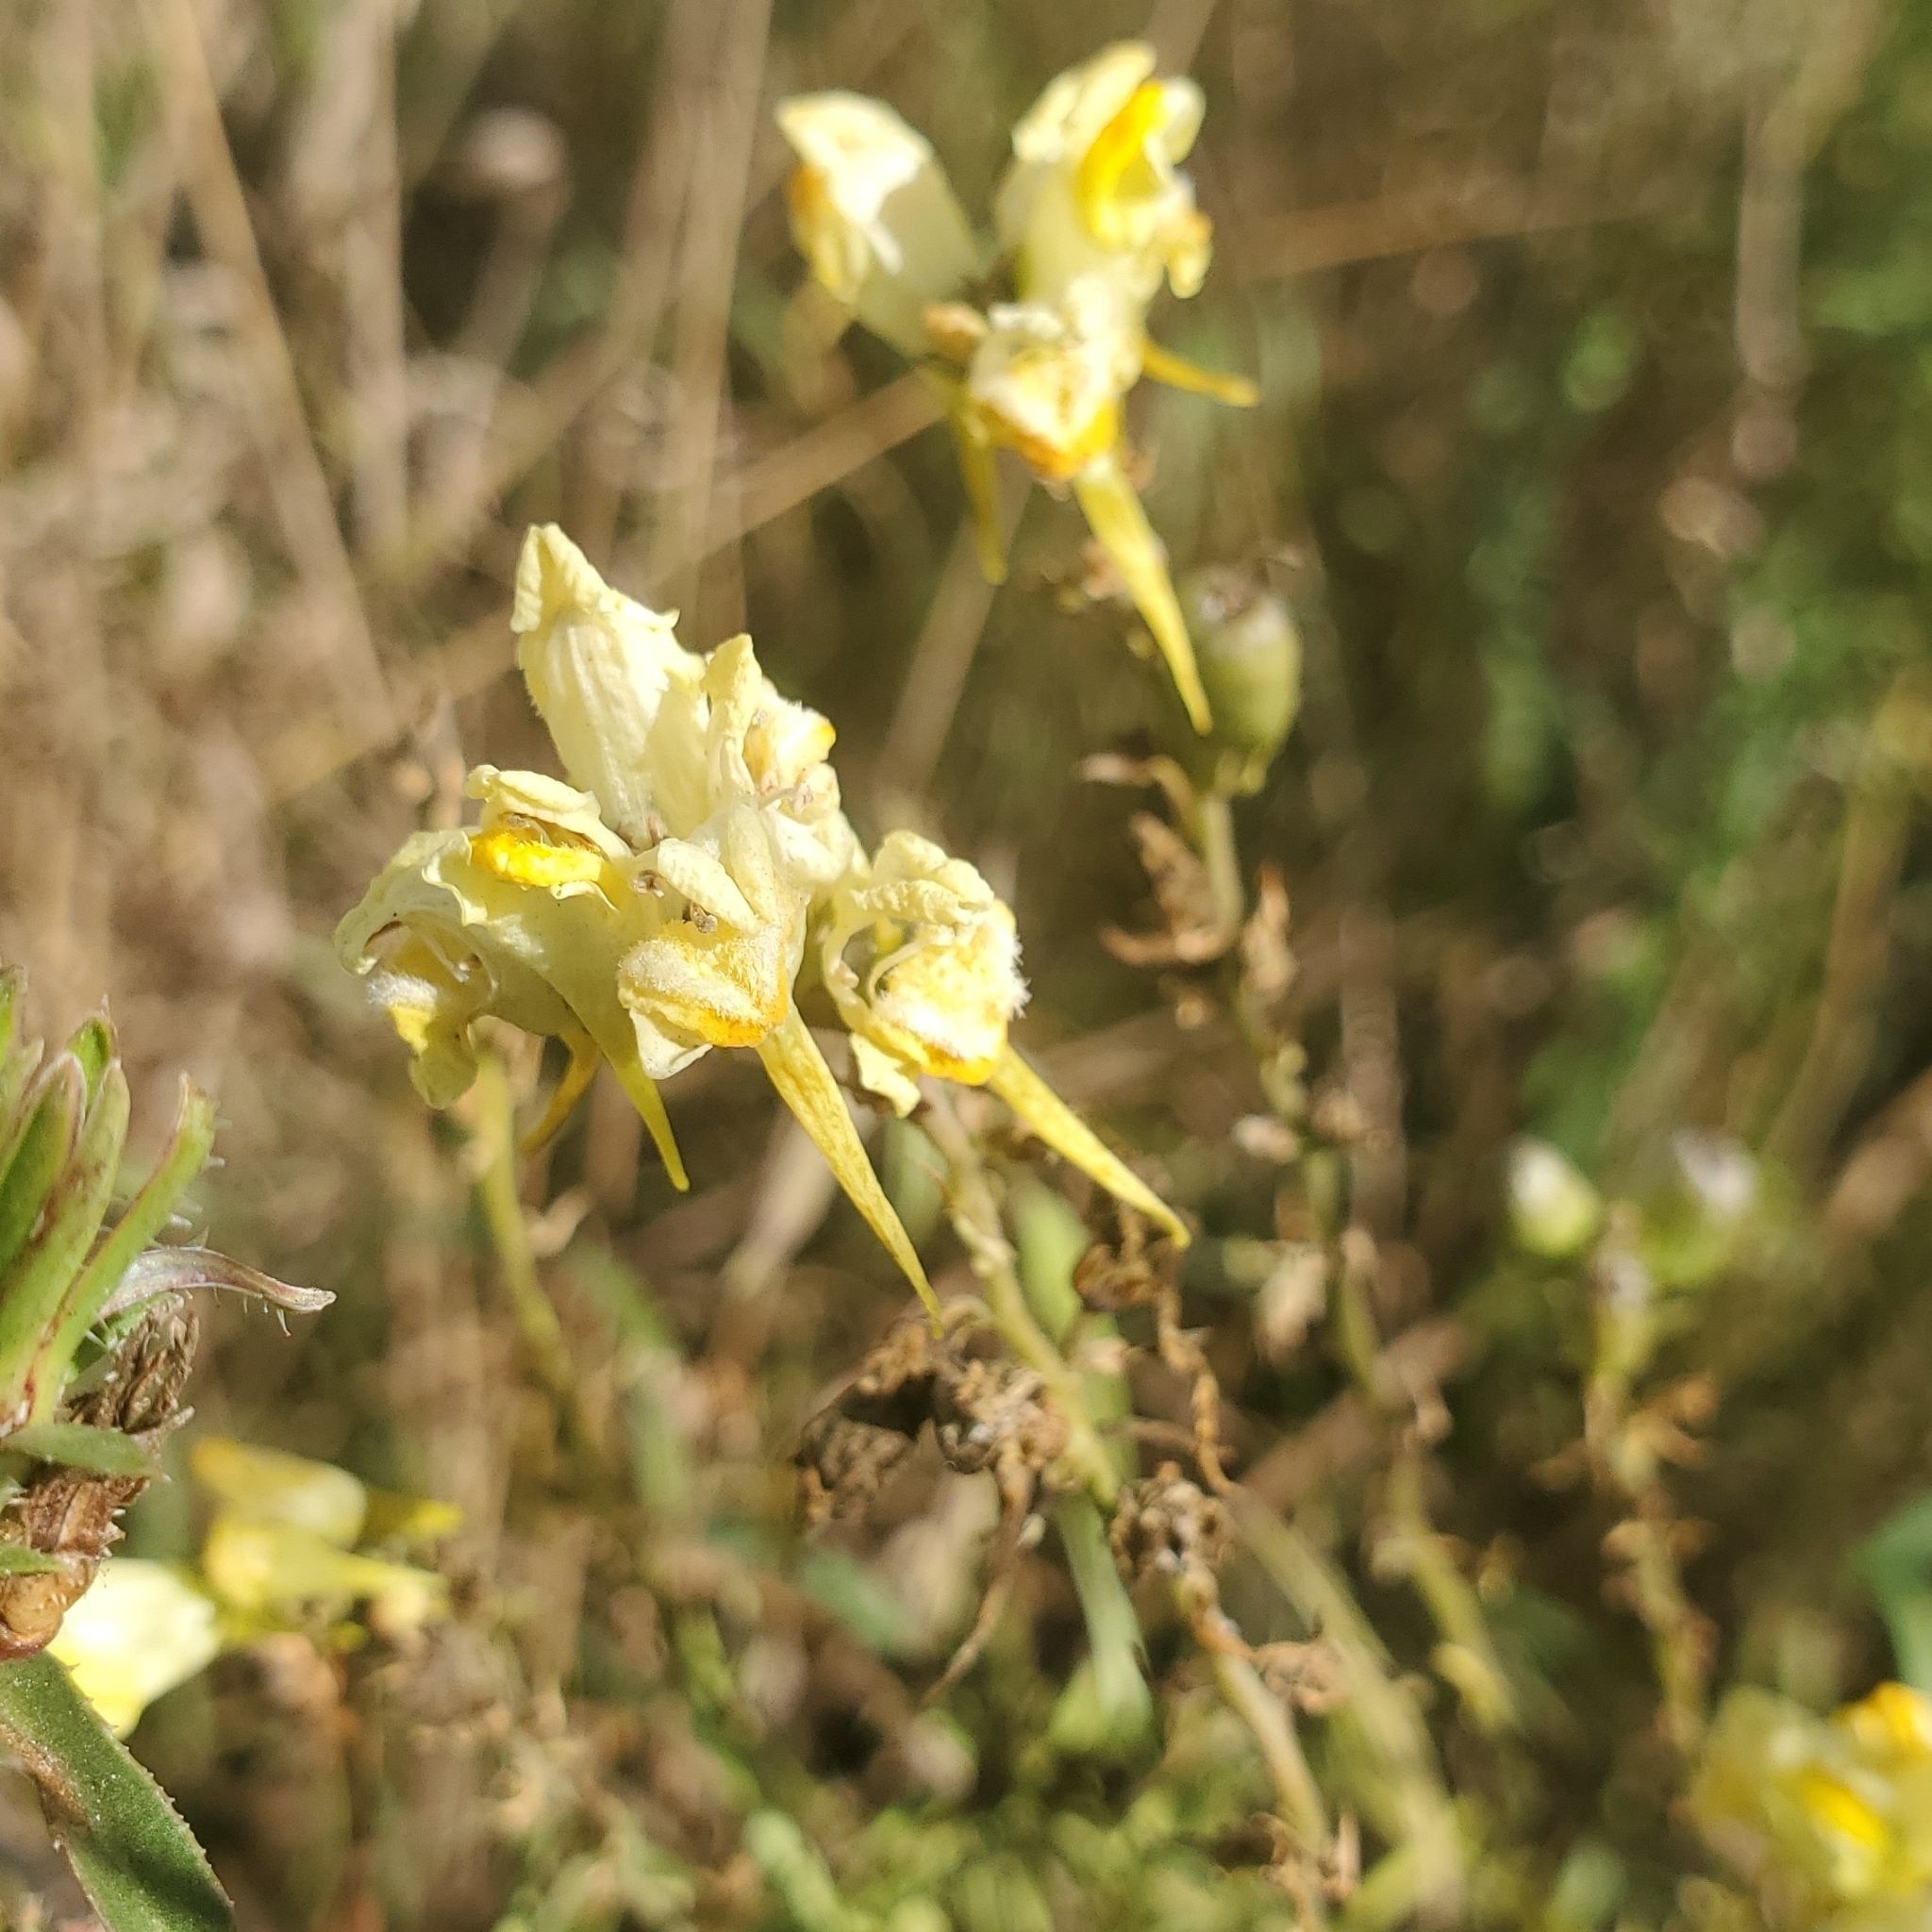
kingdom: Plantae
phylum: Tracheophyta
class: Magnoliopsida
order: Lamiales
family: Plantaginaceae
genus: Linaria
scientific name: Linaria vulgaris
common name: Butter and eggs
